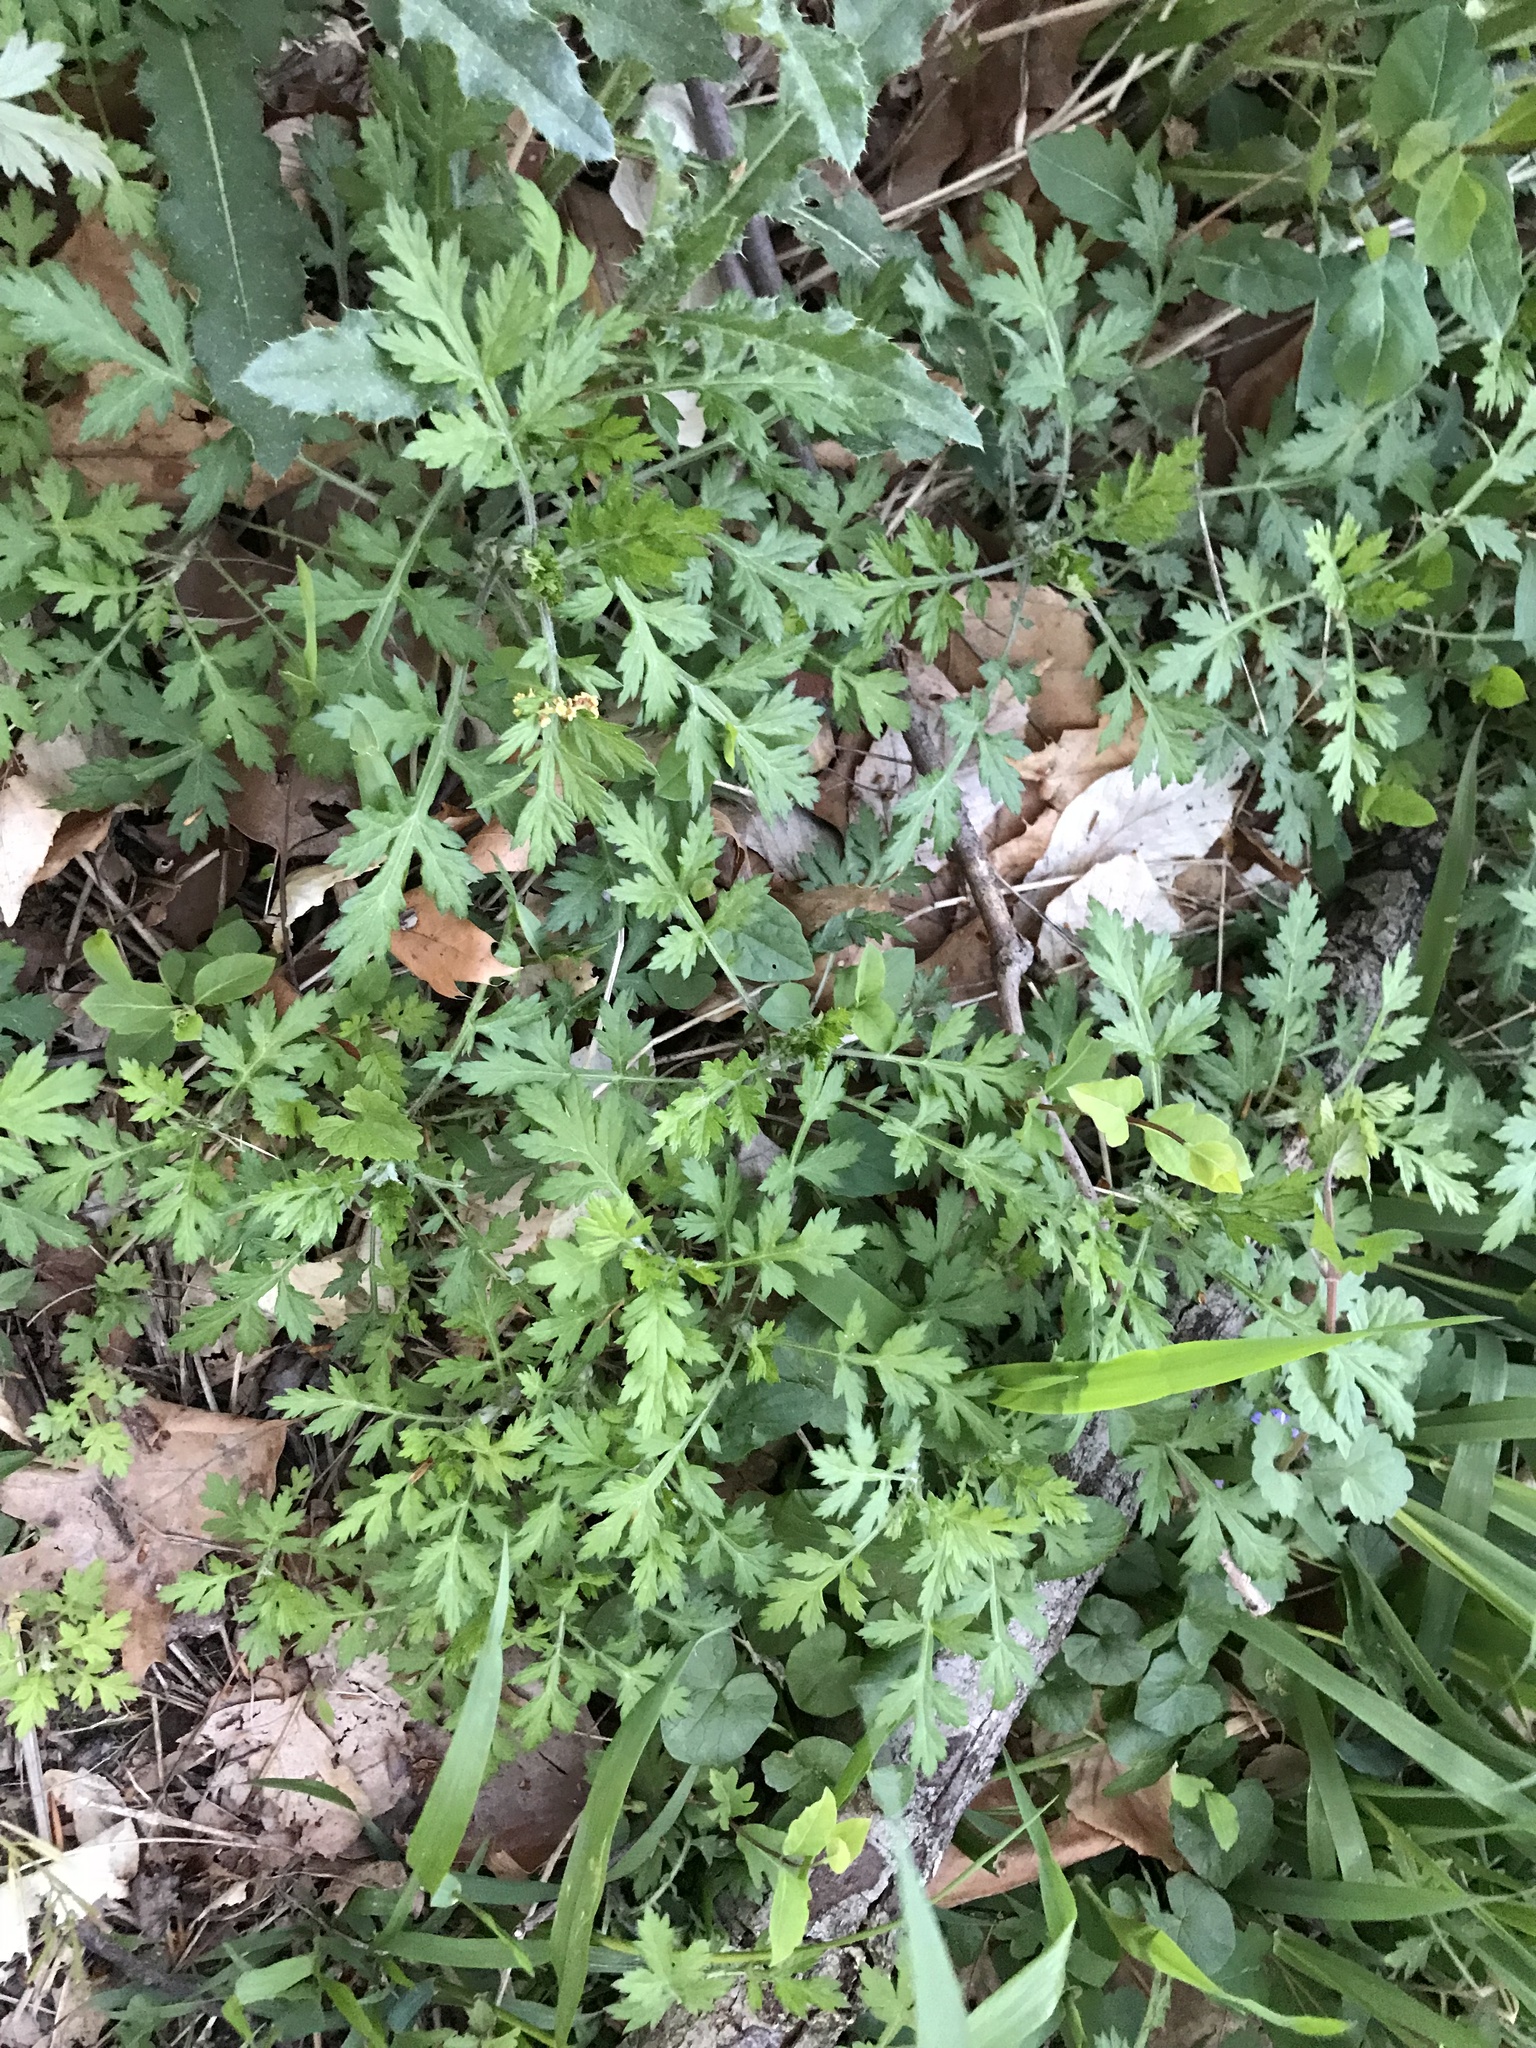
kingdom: Plantae
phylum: Tracheophyta
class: Magnoliopsida
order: Asterales
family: Asteraceae
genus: Artemisia
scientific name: Artemisia vulgaris
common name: Mugwort
